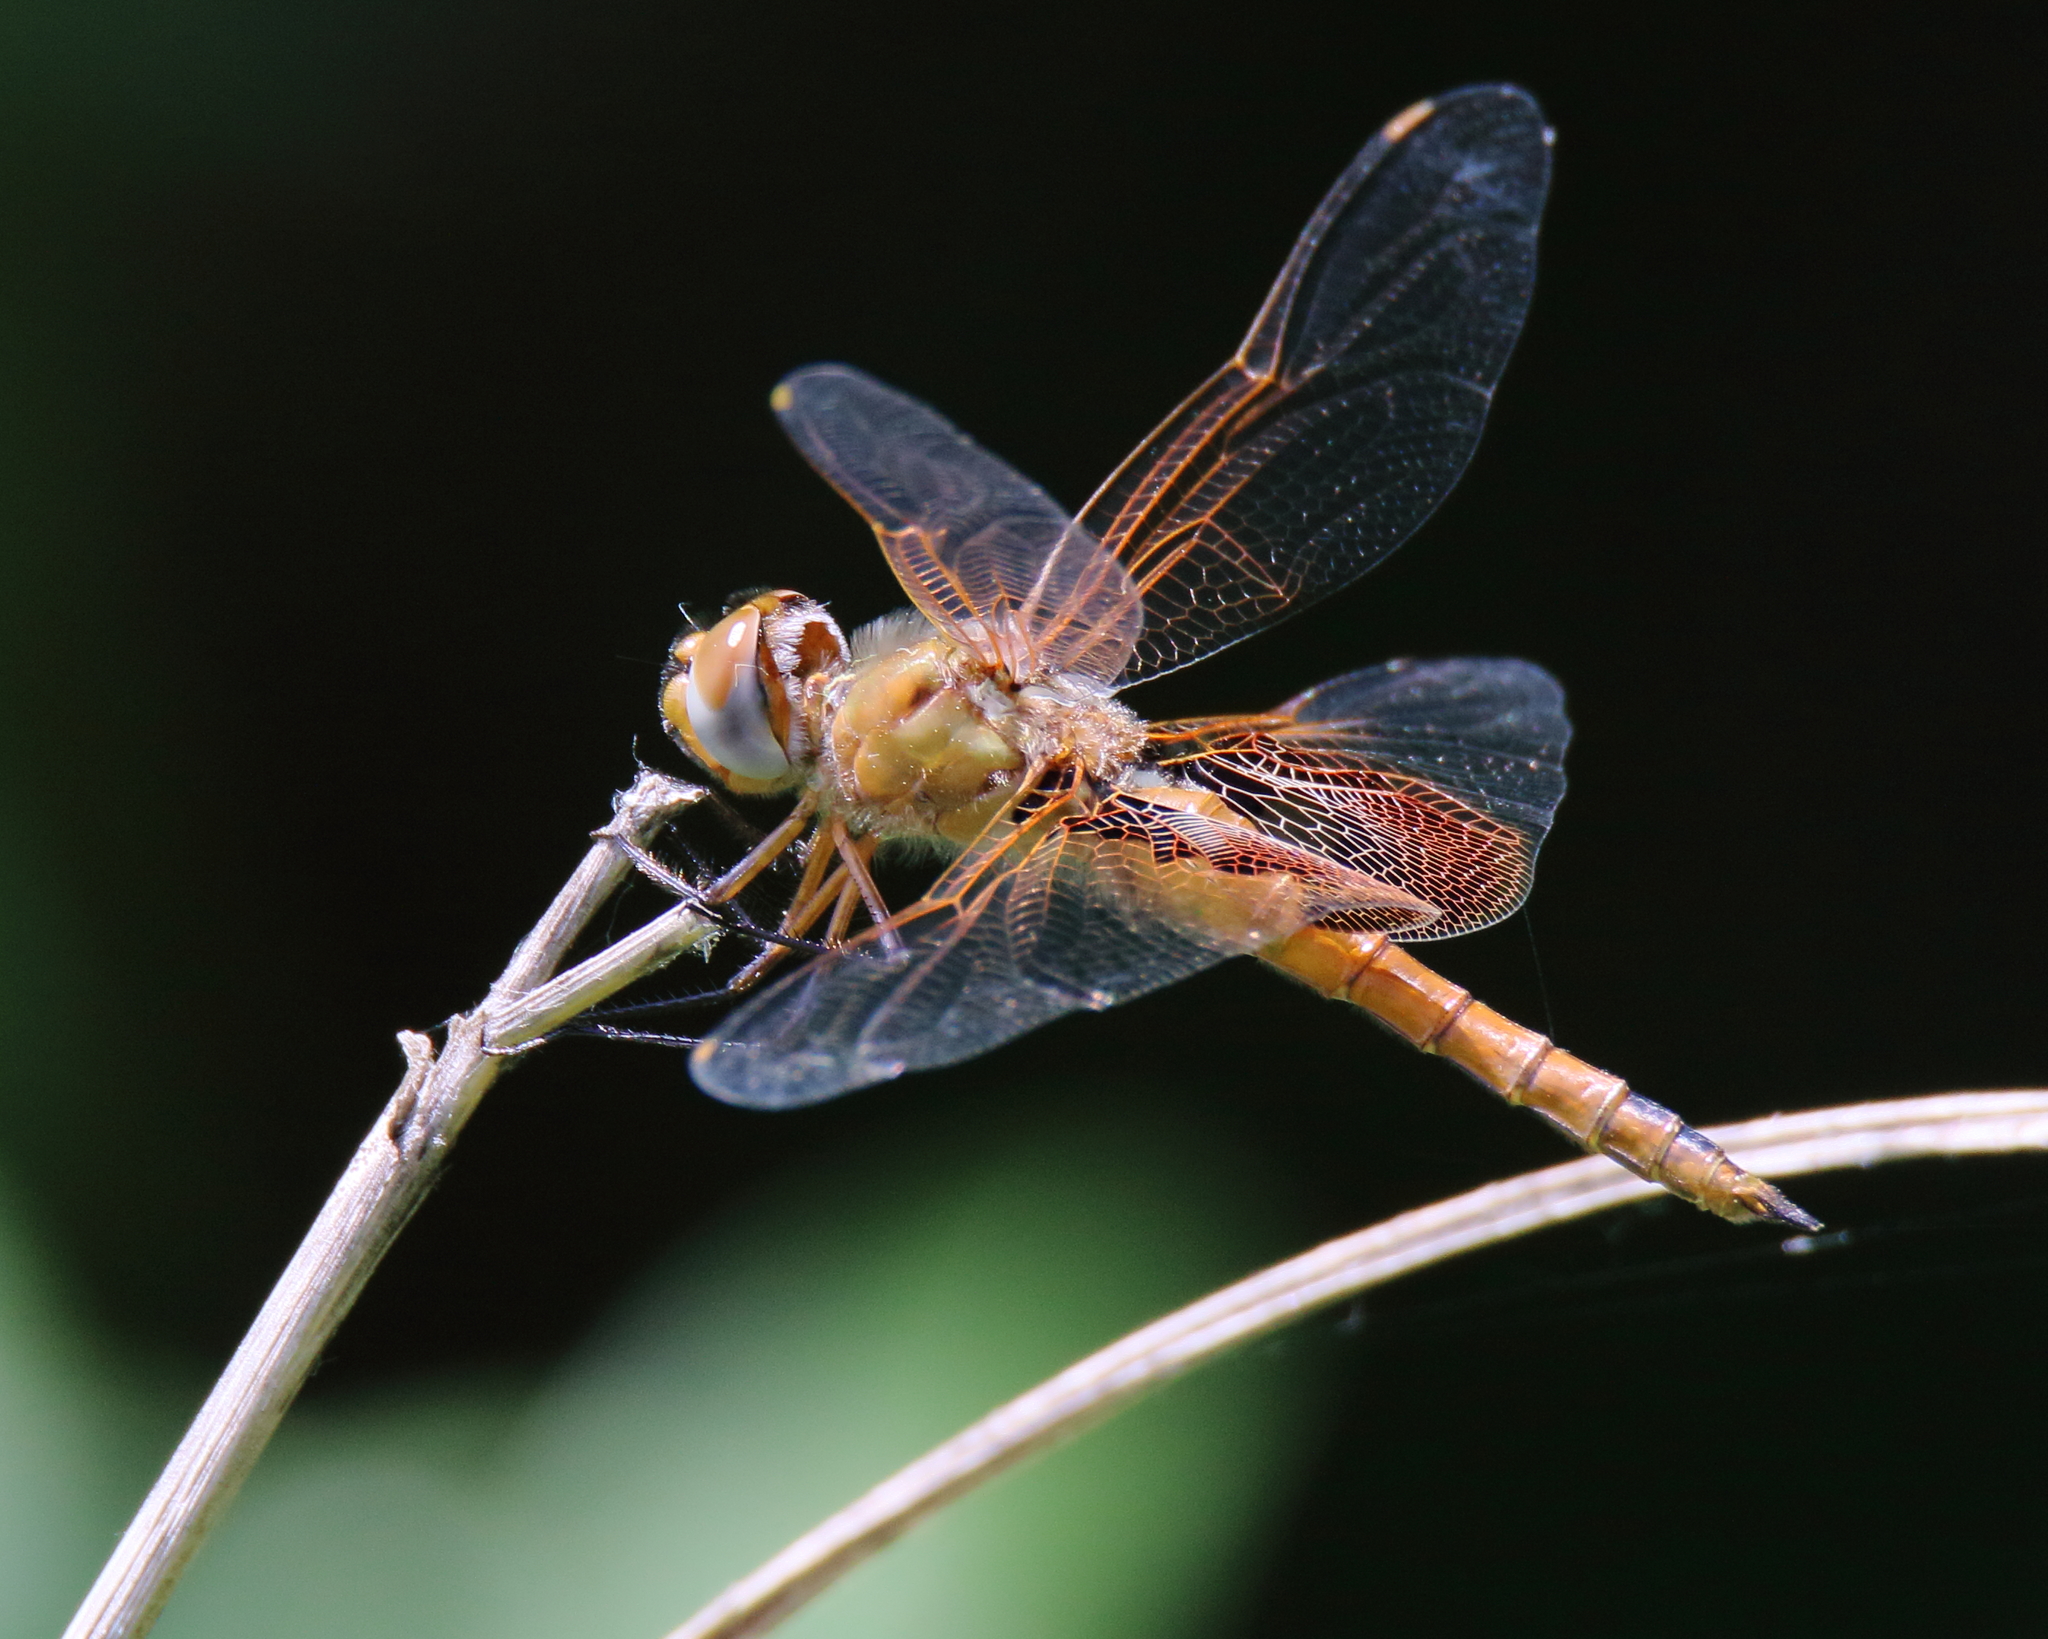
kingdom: Animalia
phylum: Arthropoda
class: Insecta
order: Odonata
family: Libellulidae
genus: Tramea
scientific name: Tramea onusta
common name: Red saddlebags
